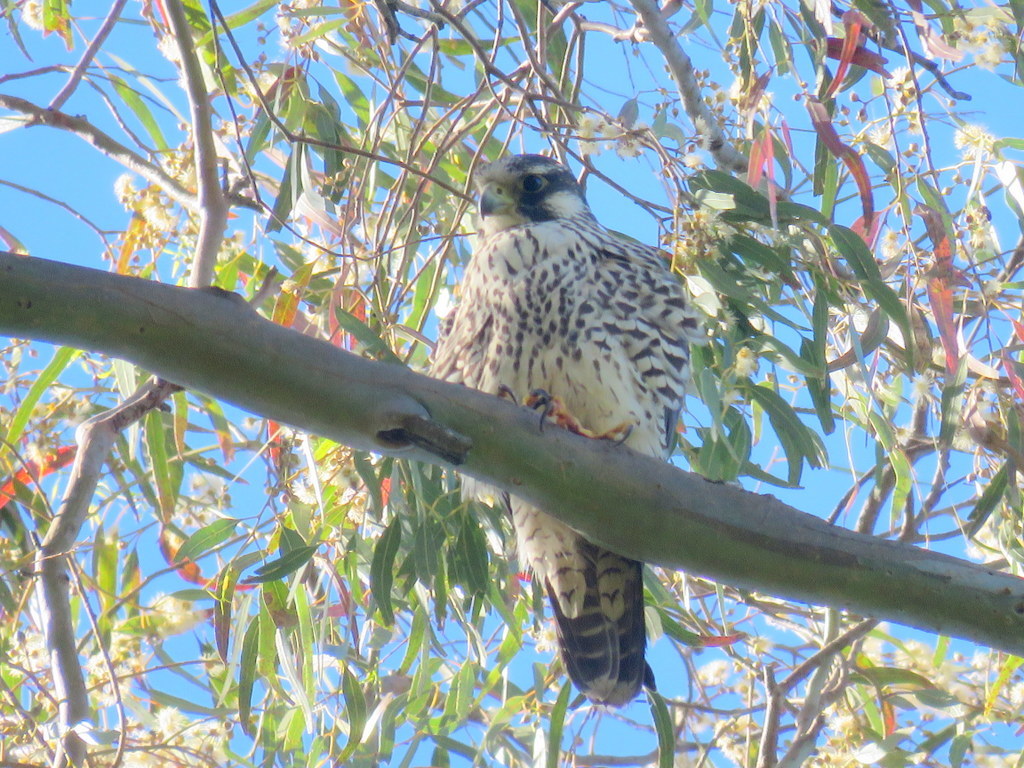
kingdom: Animalia
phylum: Chordata
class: Aves
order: Falconiformes
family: Falconidae
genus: Falco
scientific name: Falco peregrinus
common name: Peregrine falcon
